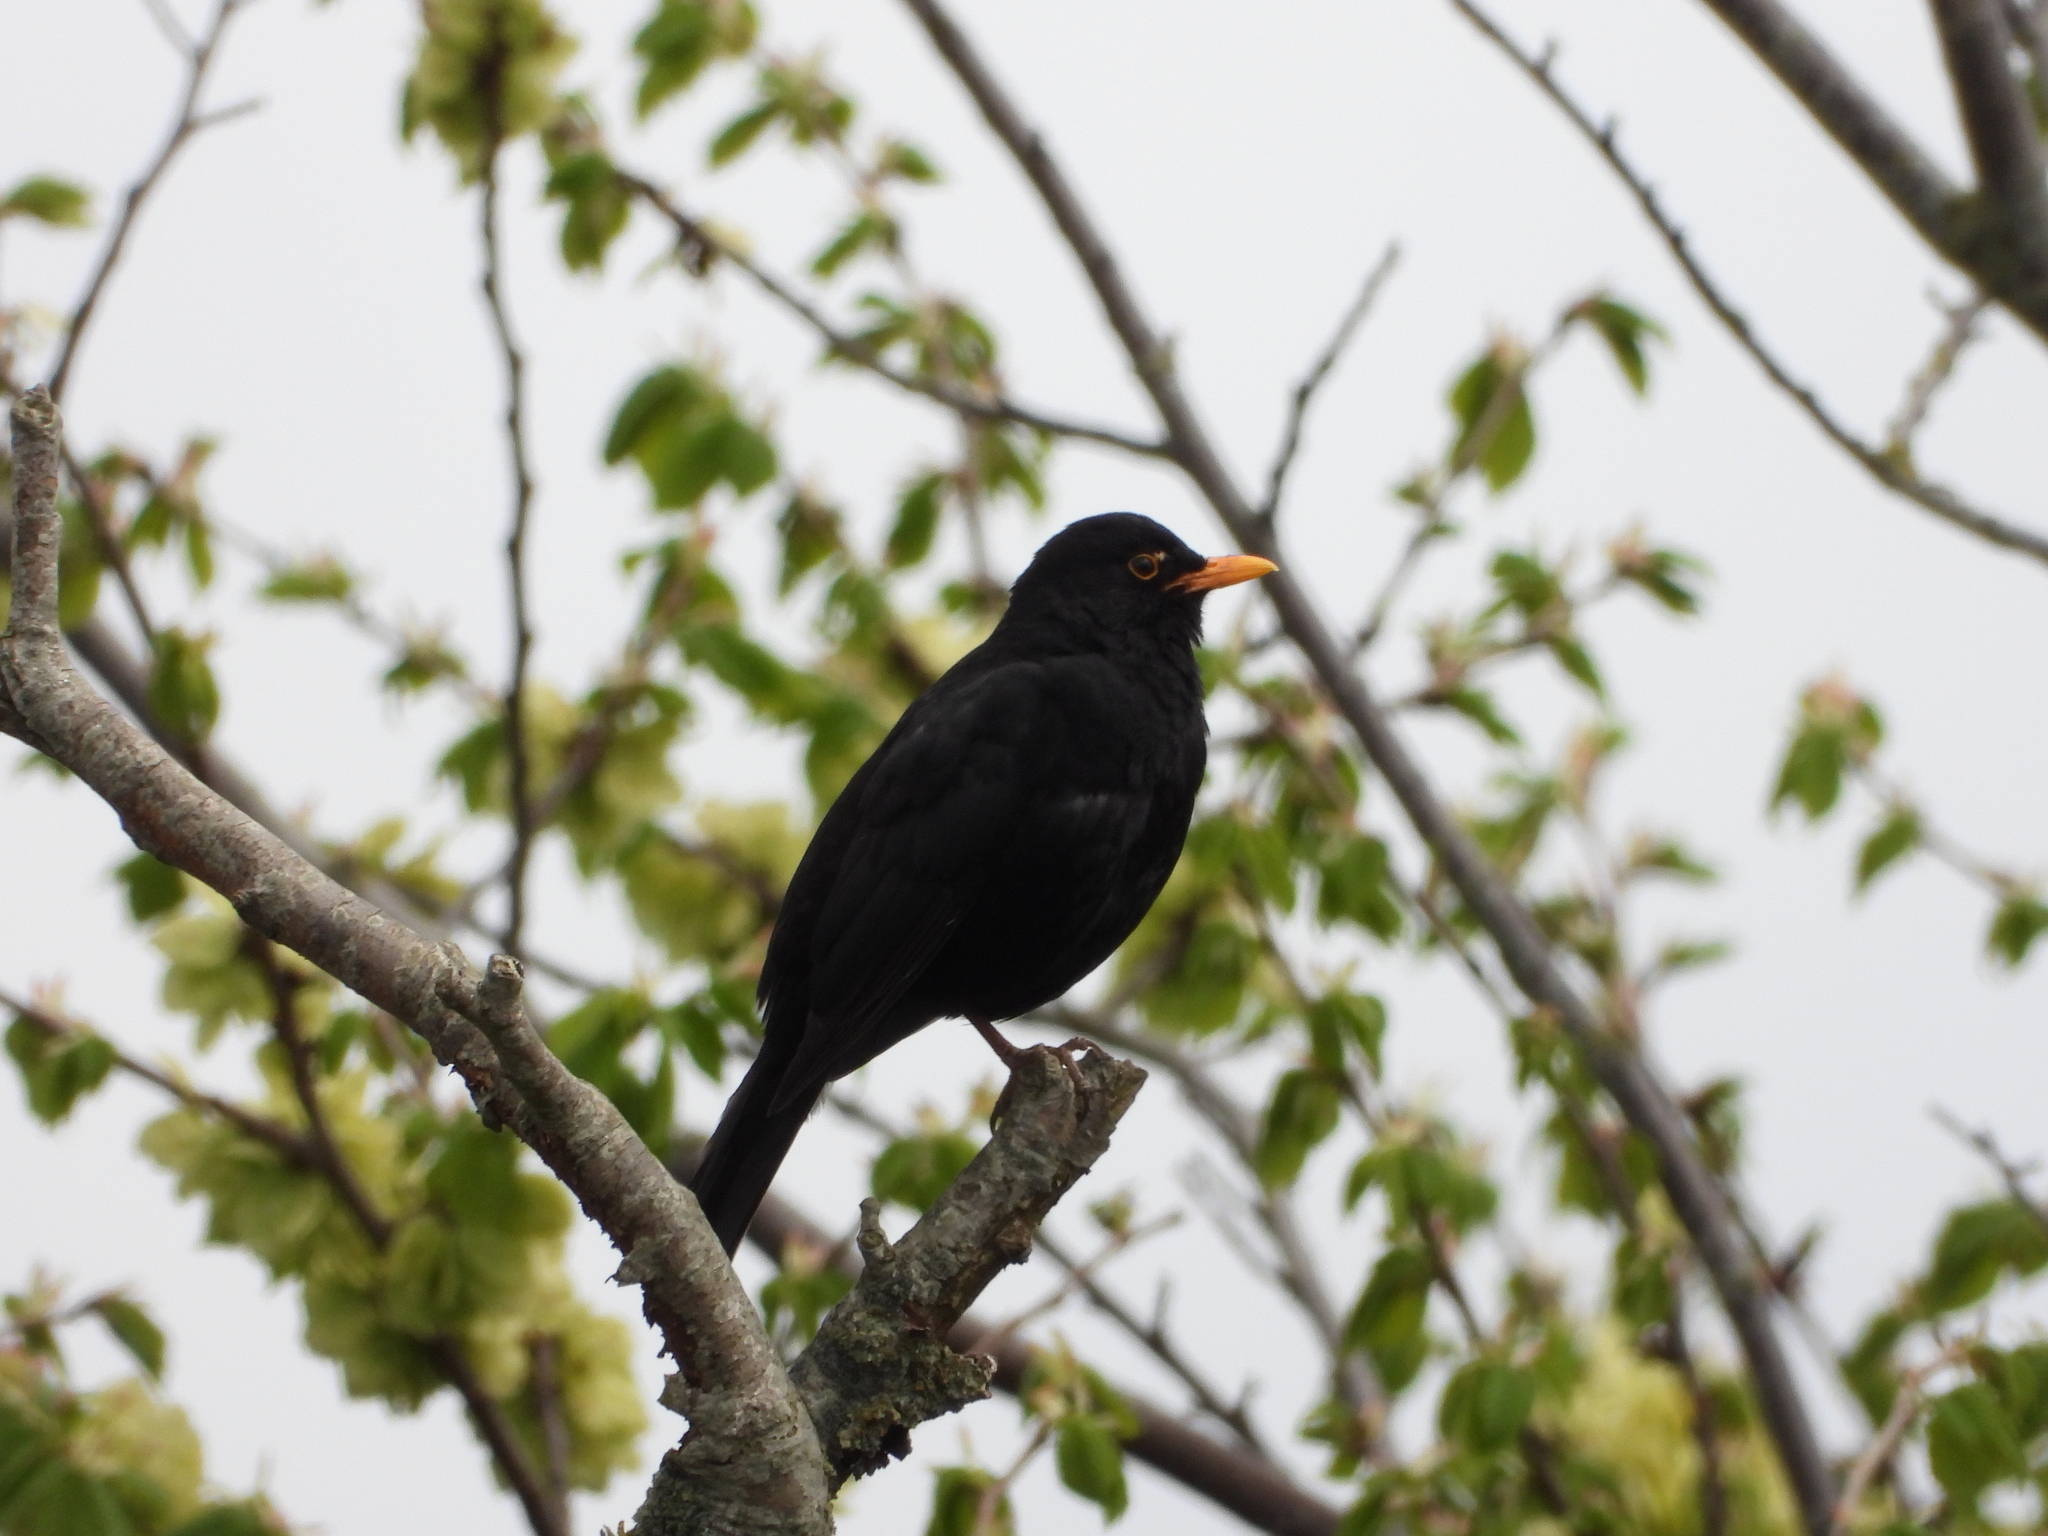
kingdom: Animalia
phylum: Chordata
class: Aves
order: Passeriformes
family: Turdidae
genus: Turdus
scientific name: Turdus merula
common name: Common blackbird
